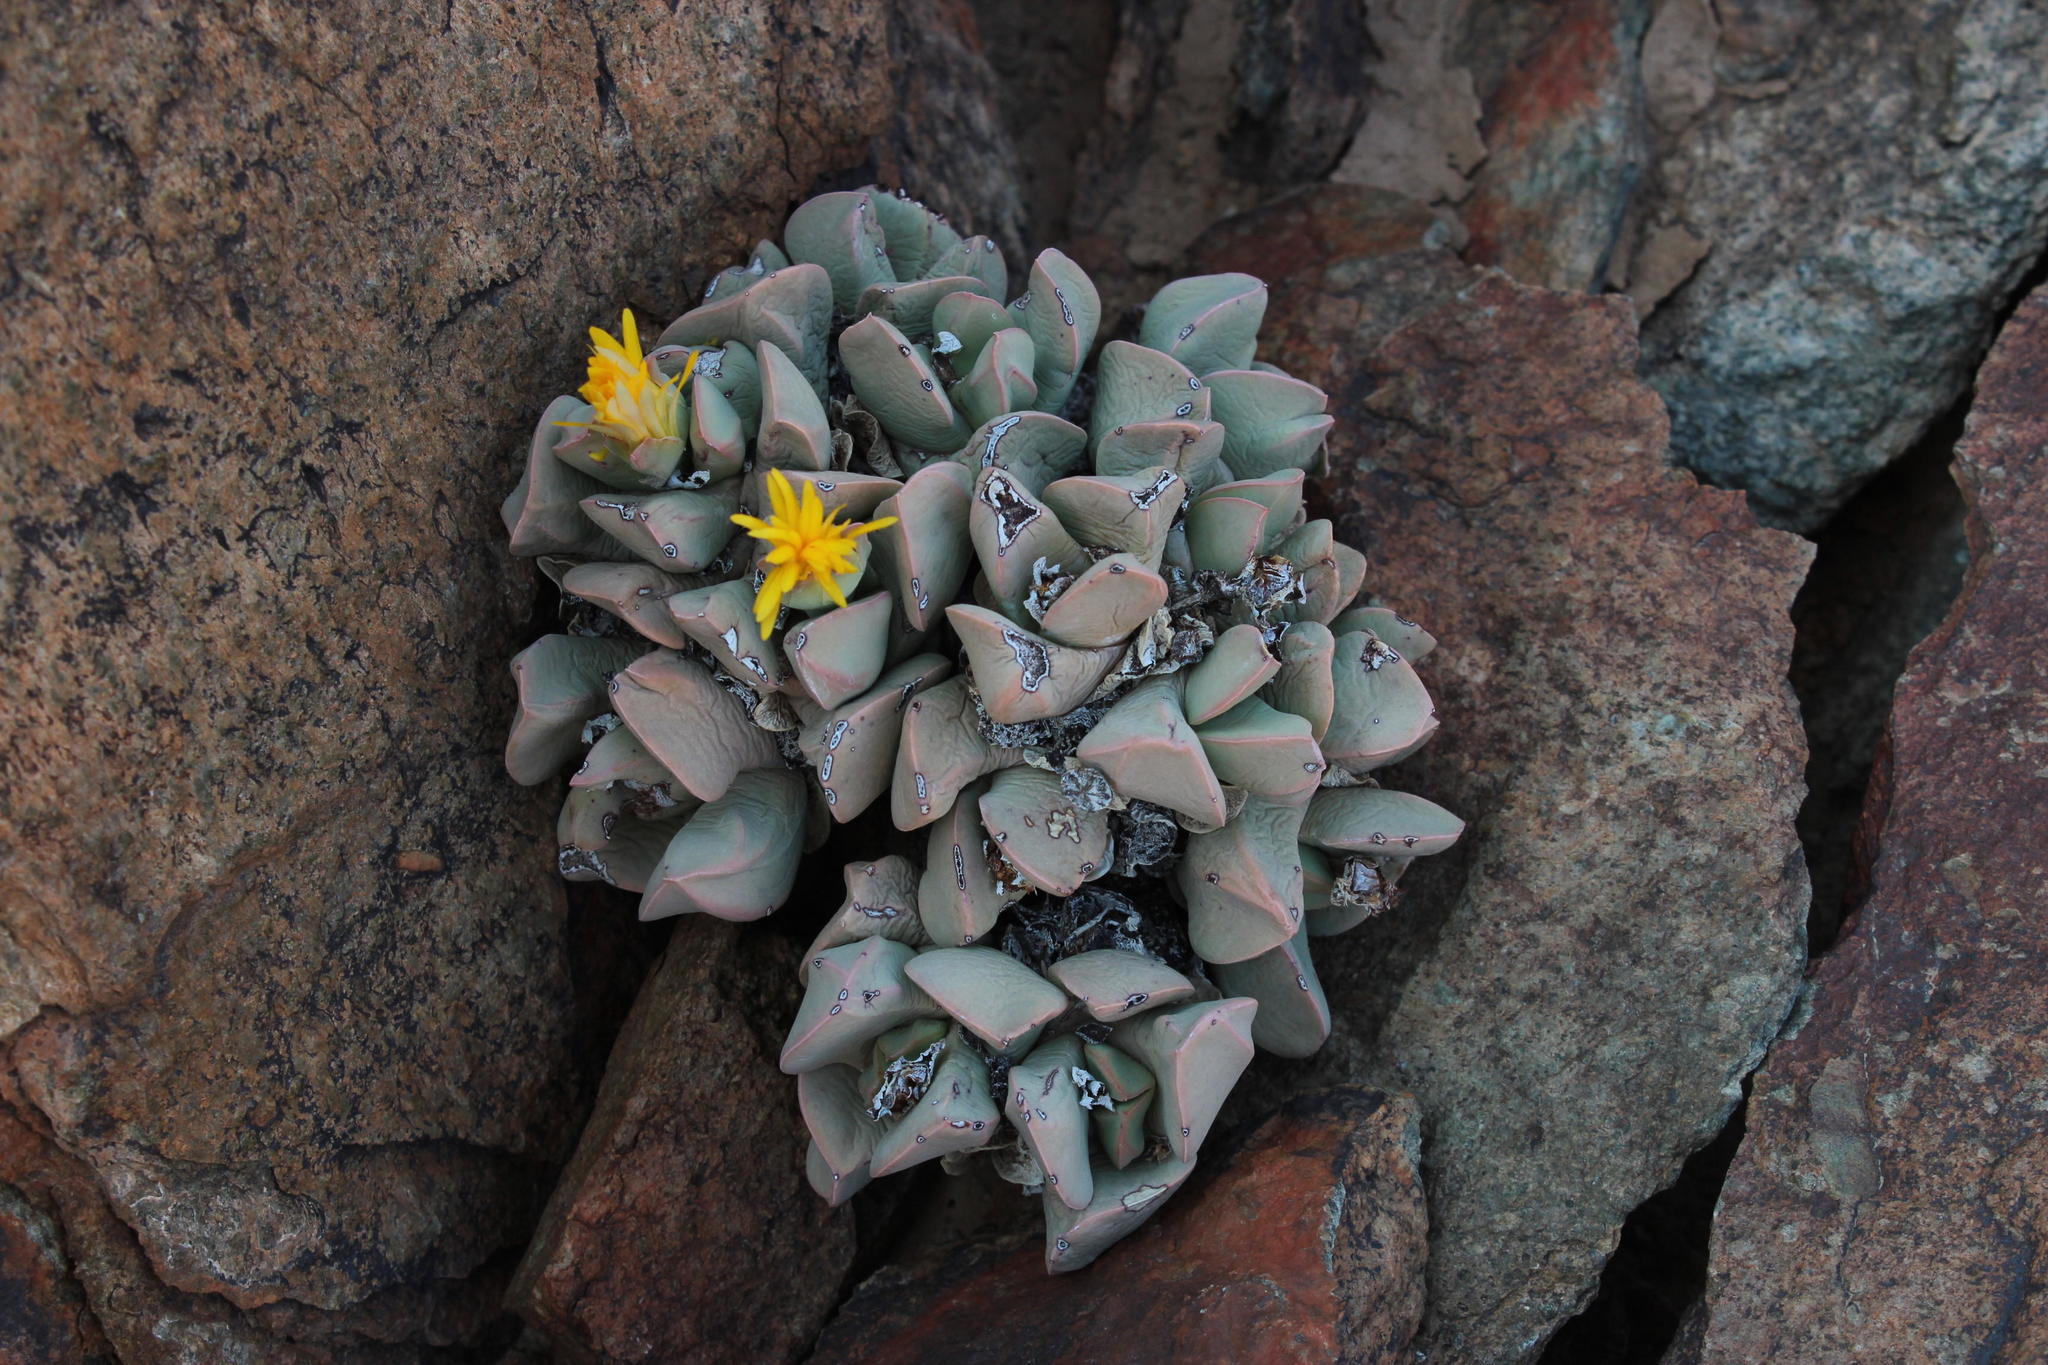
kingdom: Plantae
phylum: Tracheophyta
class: Magnoliopsida
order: Caryophyllales
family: Aizoaceae
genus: Schwantesia
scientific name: Schwantesia herrei
